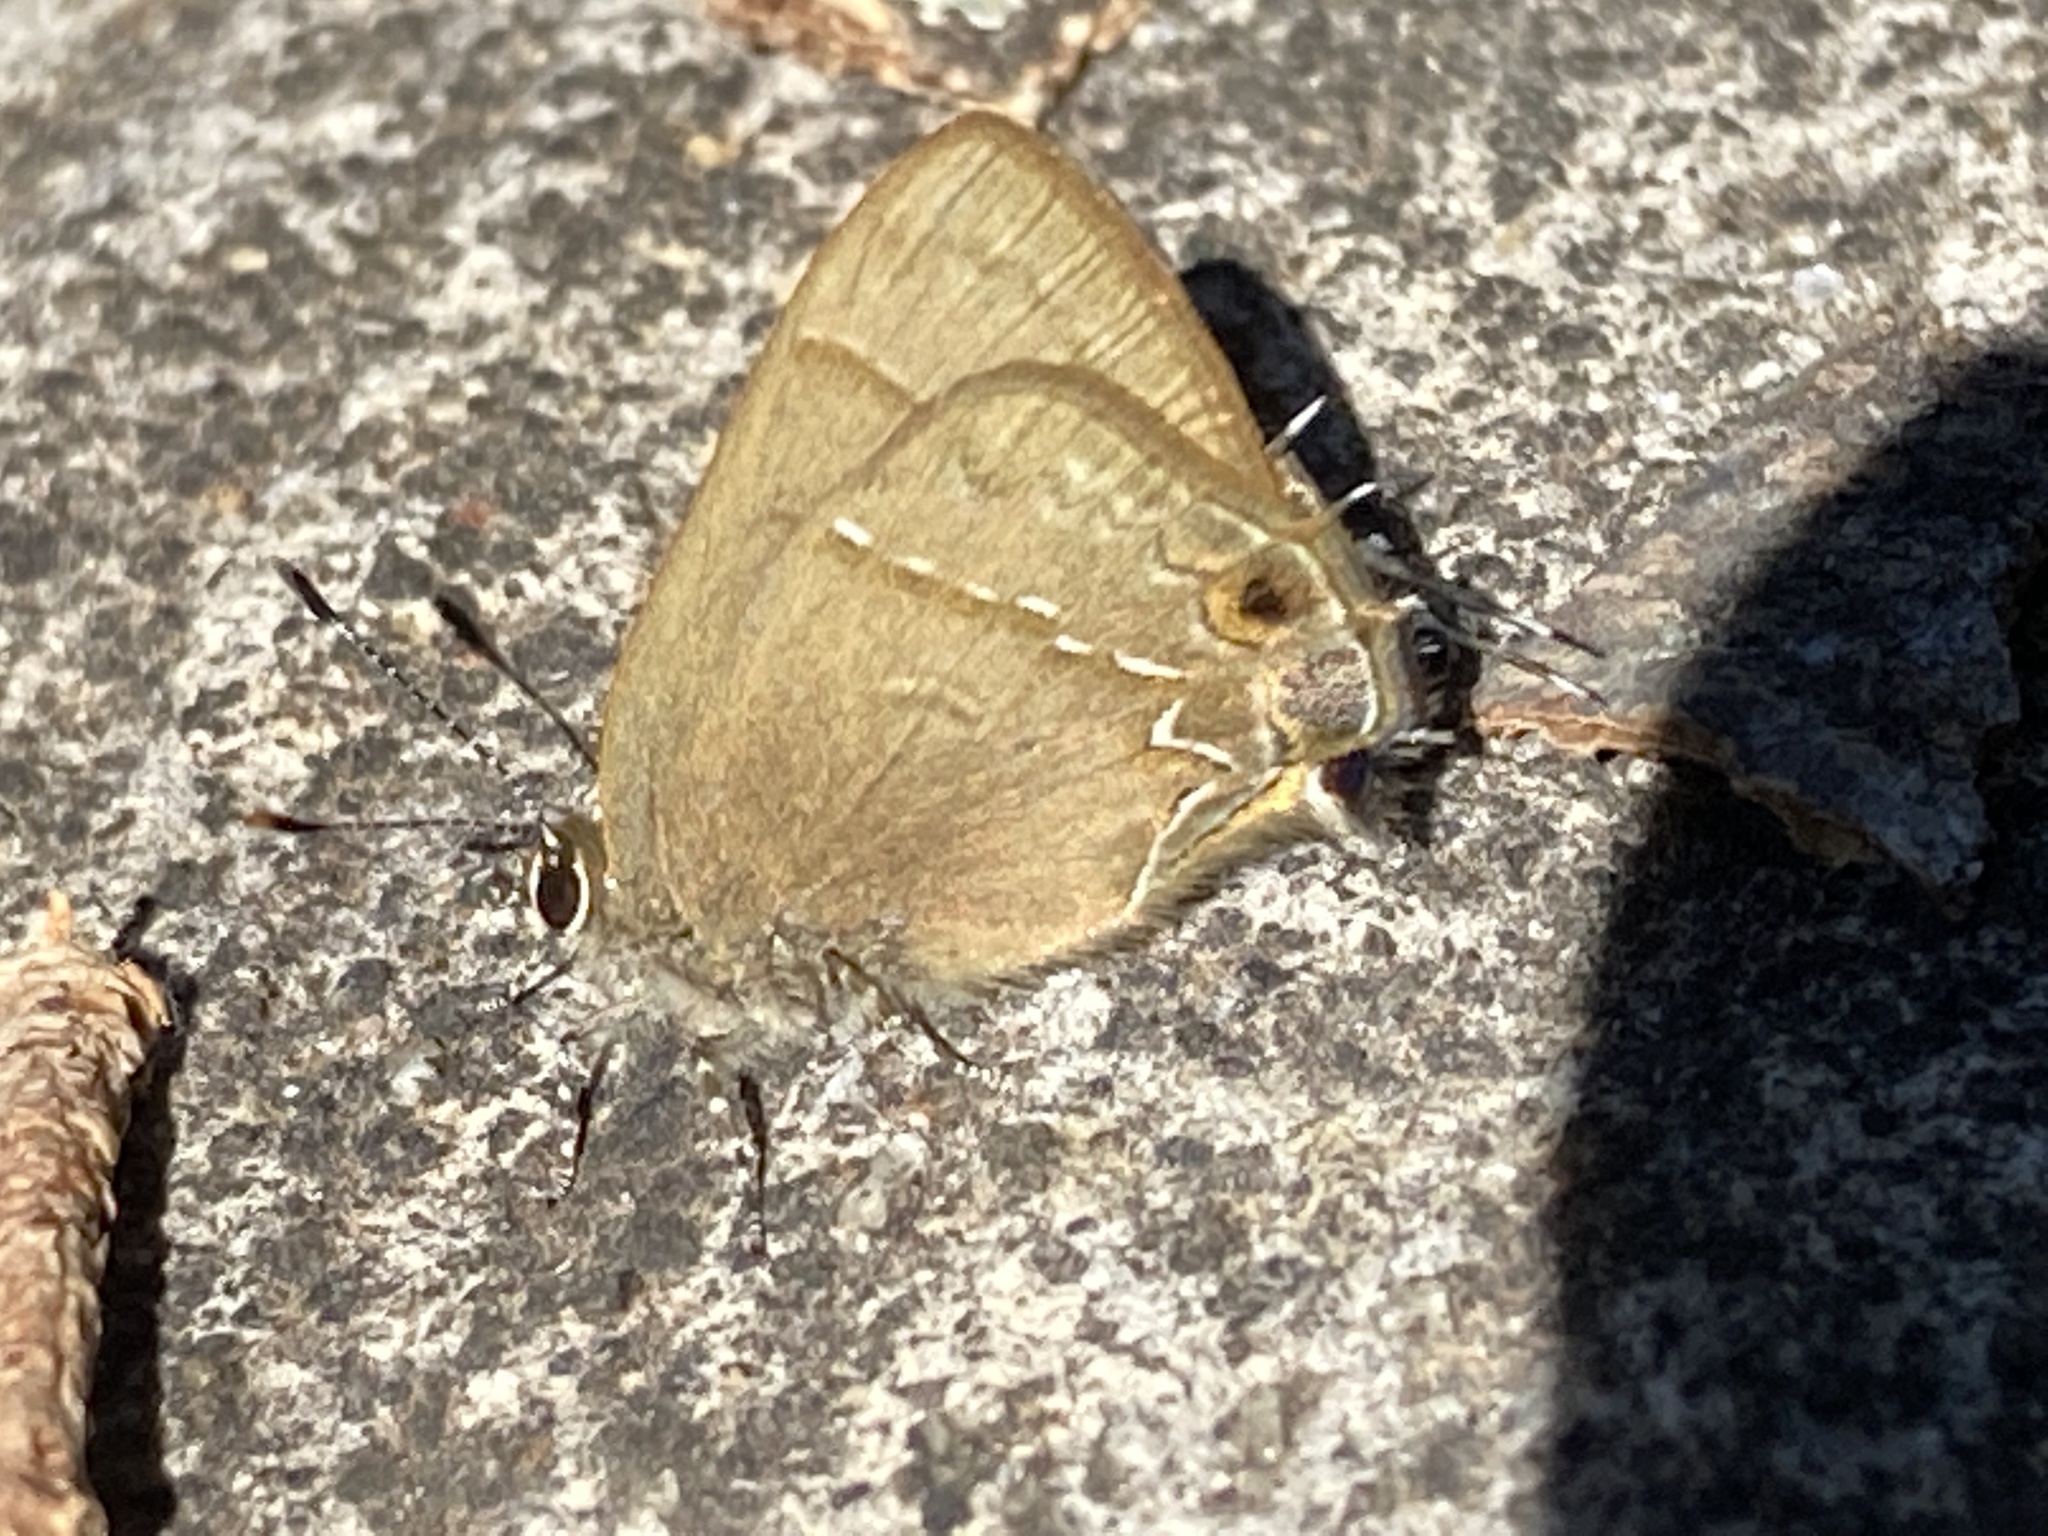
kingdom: Animalia
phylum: Arthropoda
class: Insecta
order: Lepidoptera
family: Lycaenidae
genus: Electrostrymon
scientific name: Electrostrymon denarius
